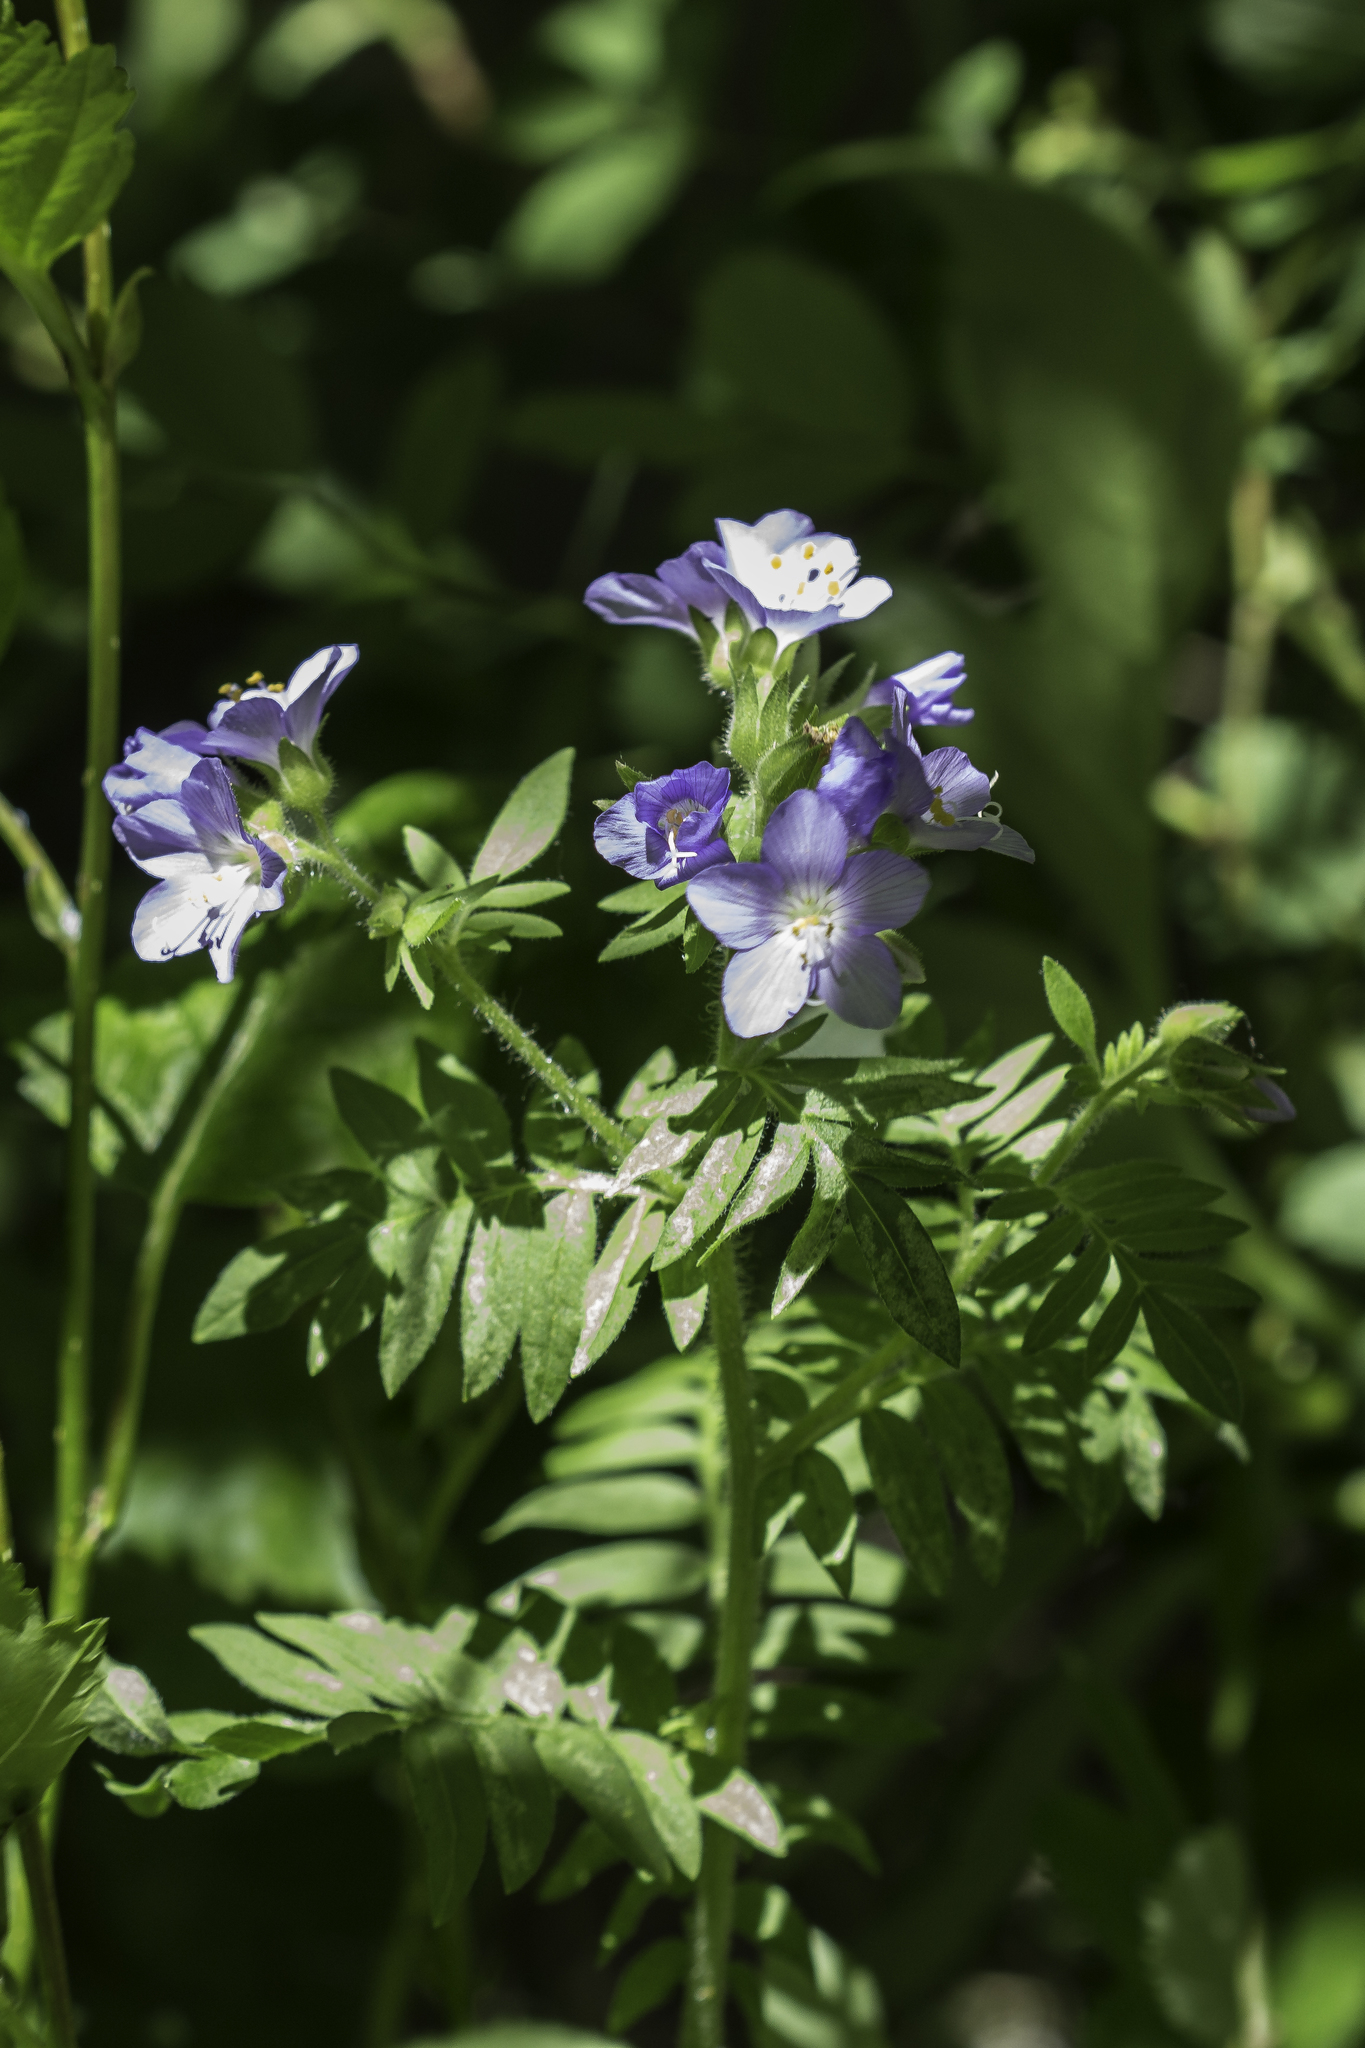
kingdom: Plantae
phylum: Tracheophyta
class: Magnoliopsida
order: Ericales
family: Polemoniaceae
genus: Polemonium
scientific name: Polemonium foliosissimum
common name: Leafy jacob's-ladder
